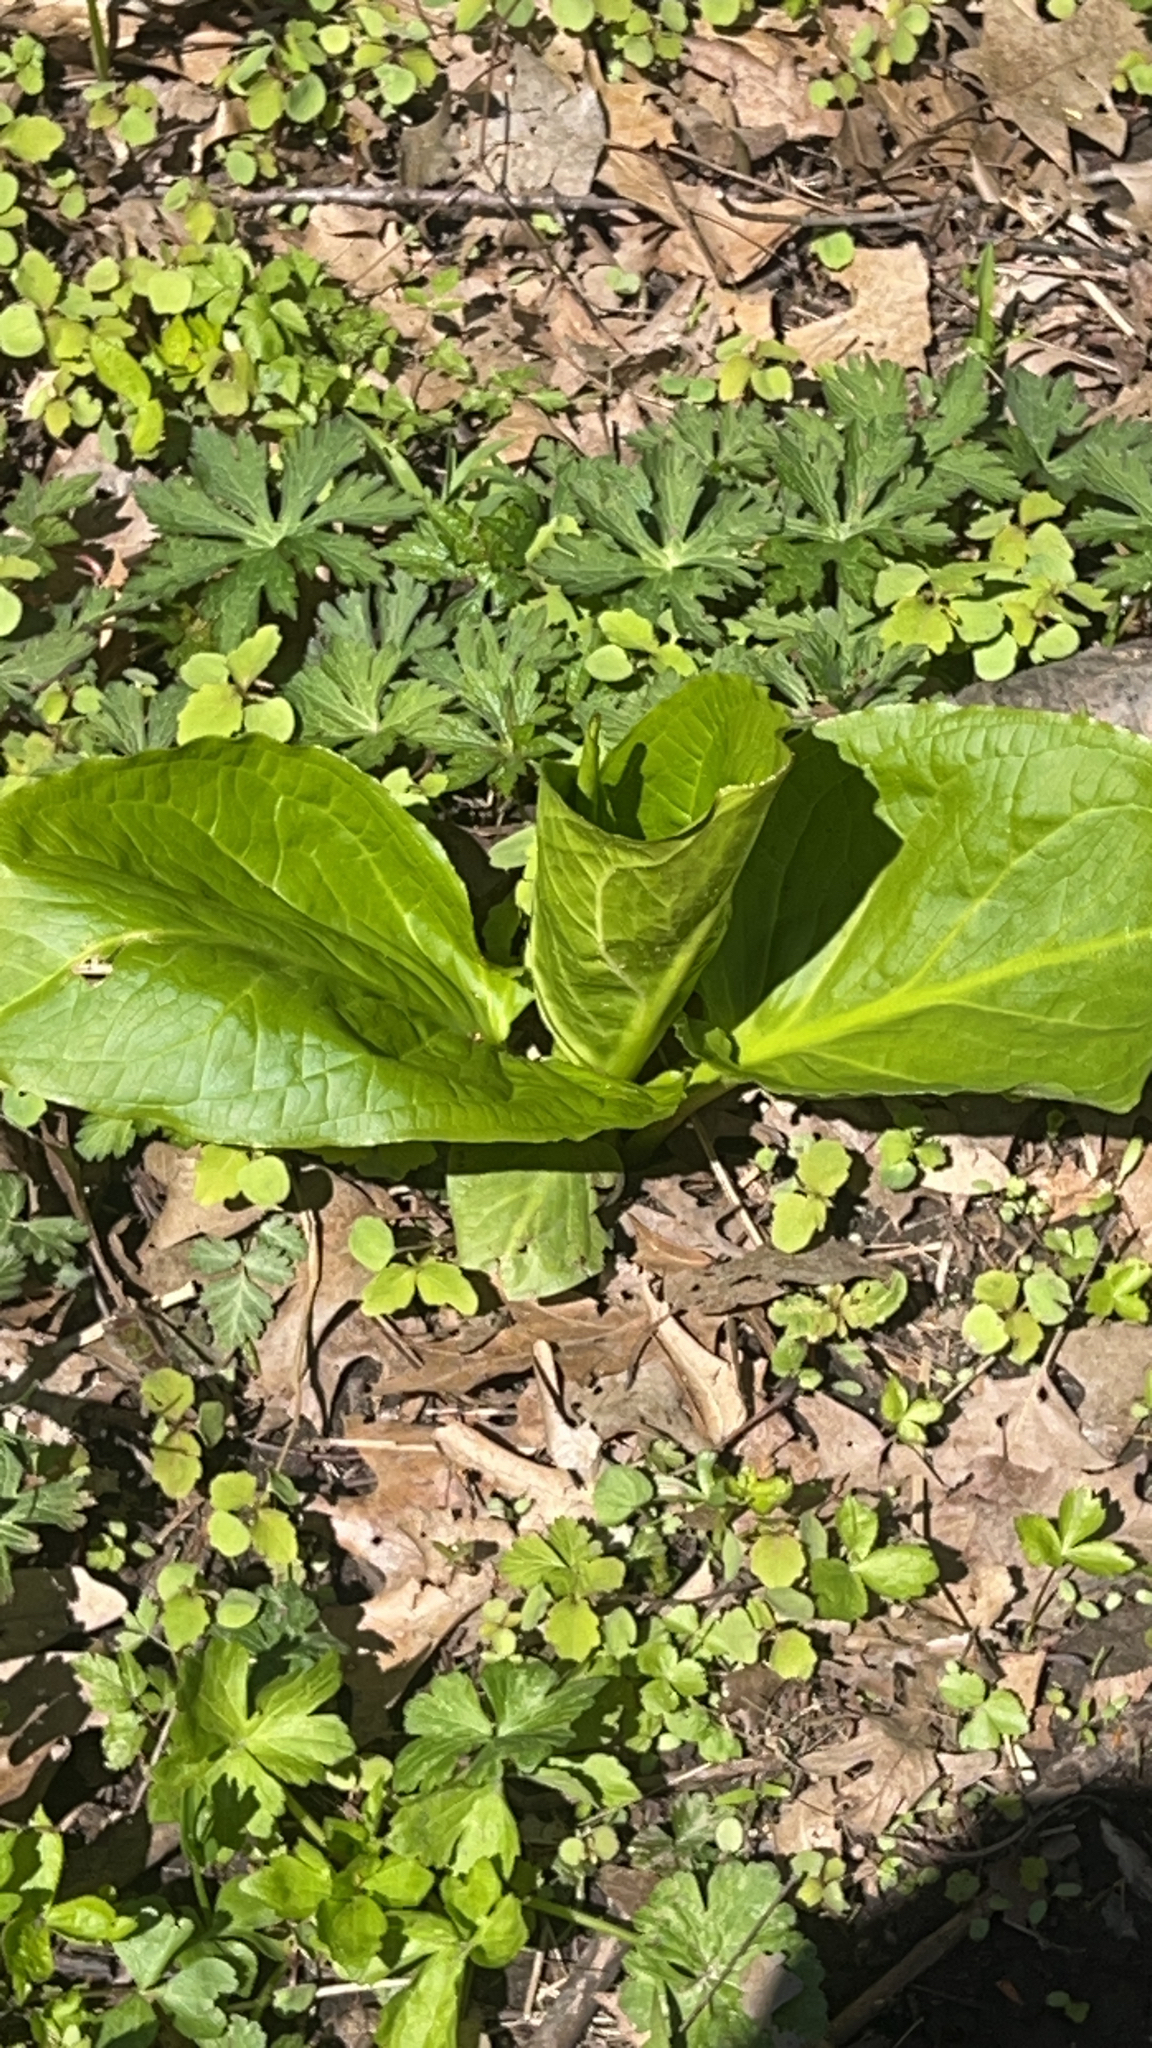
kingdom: Plantae
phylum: Tracheophyta
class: Liliopsida
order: Alismatales
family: Araceae
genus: Symplocarpus
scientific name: Symplocarpus foetidus
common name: Eastern skunk cabbage
